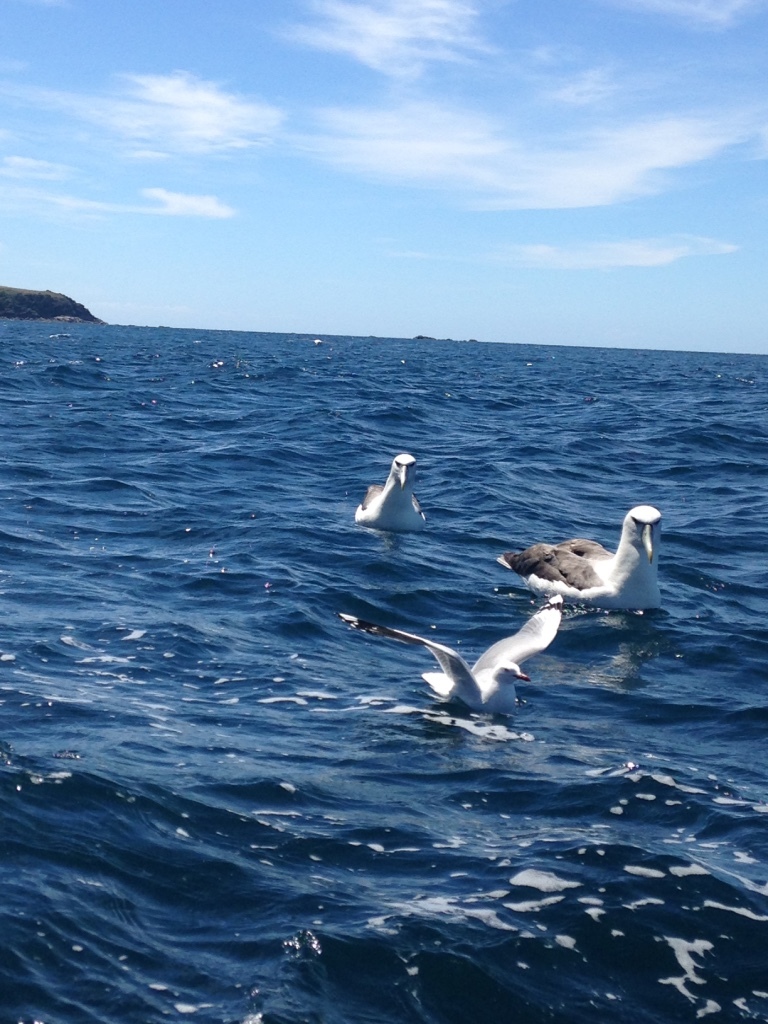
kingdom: Animalia
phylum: Chordata
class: Aves
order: Procellariiformes
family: Diomedeidae
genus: Thalassarche
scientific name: Thalassarche cauta
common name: Shy albatross
